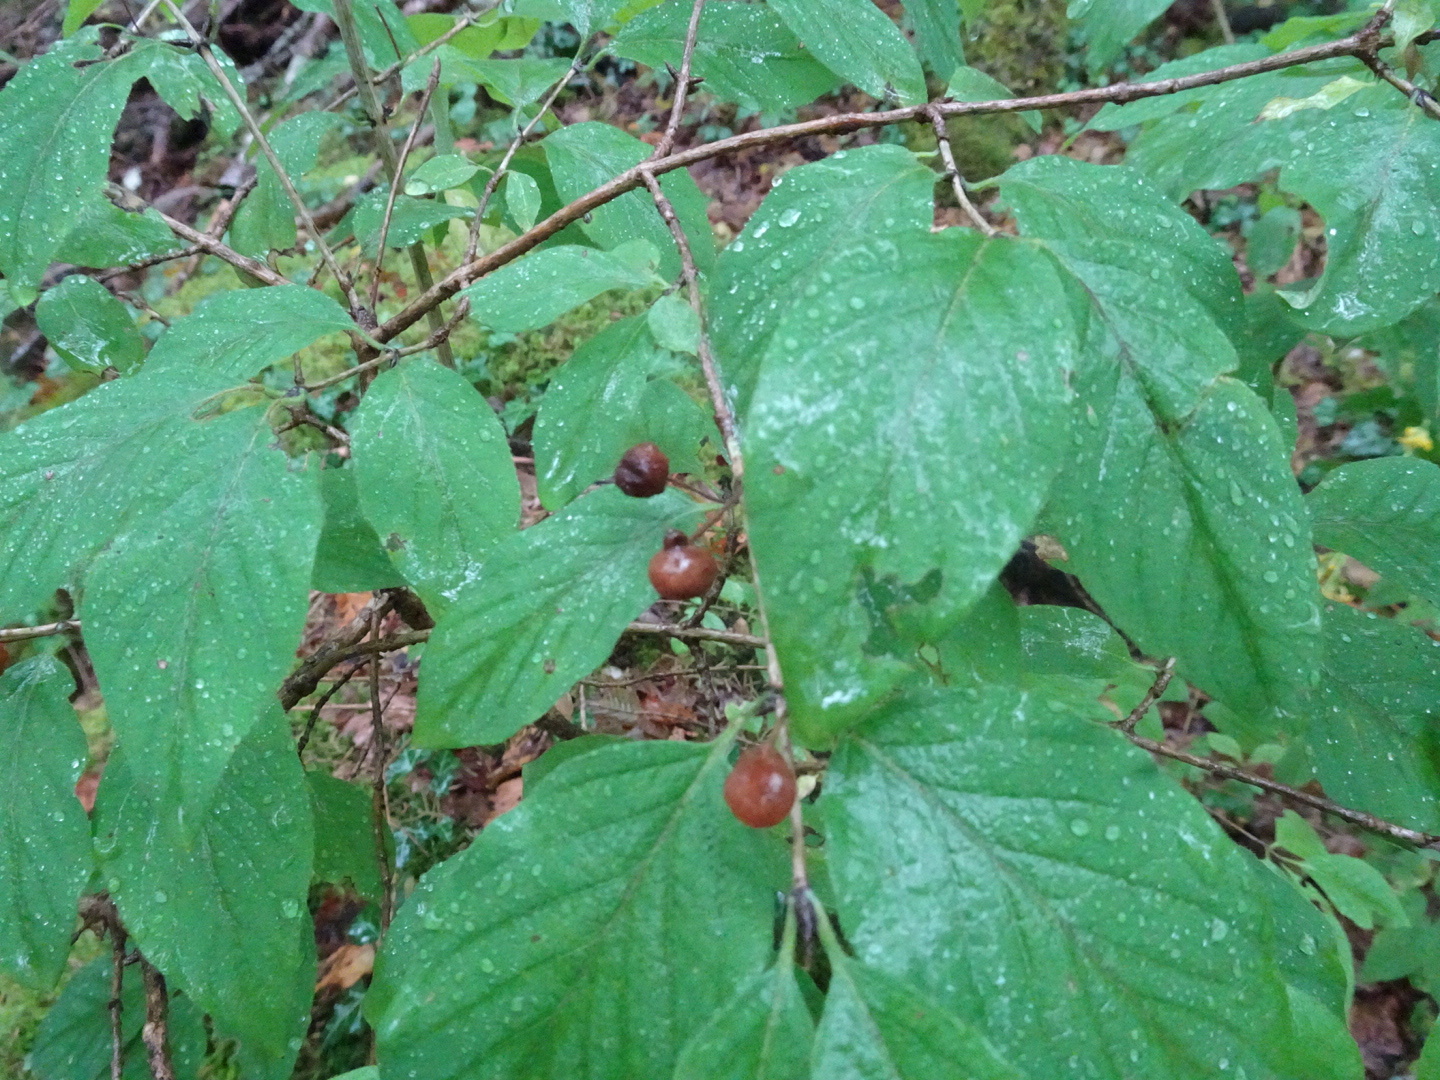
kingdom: Plantae
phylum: Tracheophyta
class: Magnoliopsida
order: Dipsacales
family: Caprifoliaceae
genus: Lonicera
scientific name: Lonicera xylosteum
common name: Fly honeysuckle
